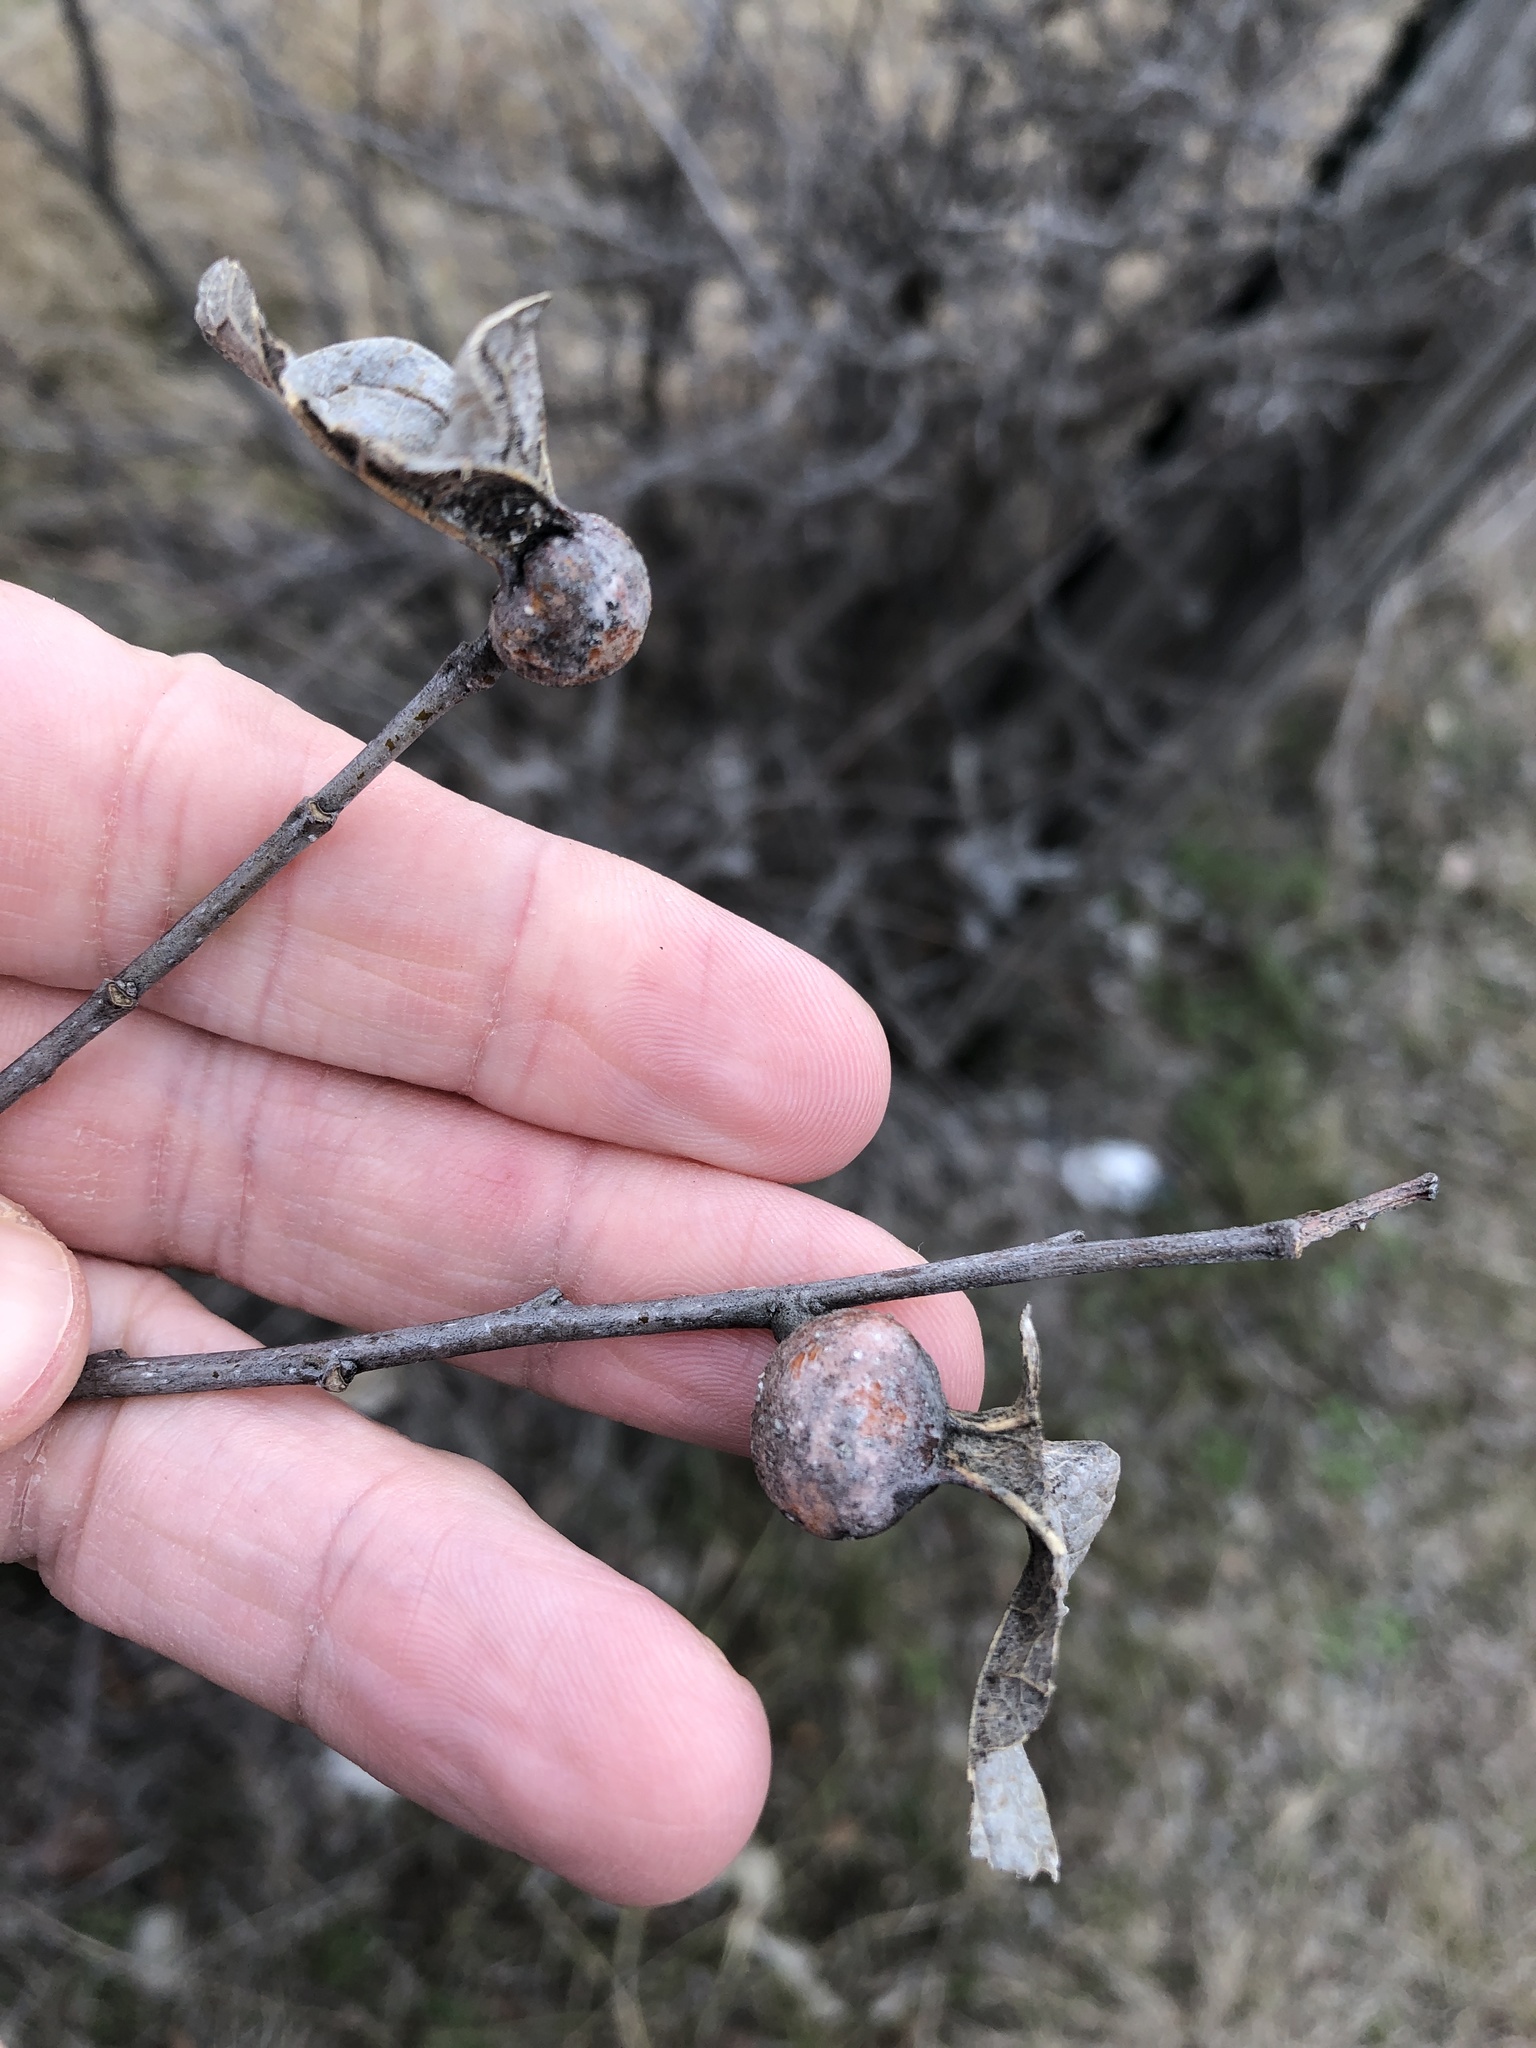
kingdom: Animalia
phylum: Arthropoda
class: Insecta
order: Hemiptera
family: Aphalaridae
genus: Pachypsylla
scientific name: Pachypsylla venusta
